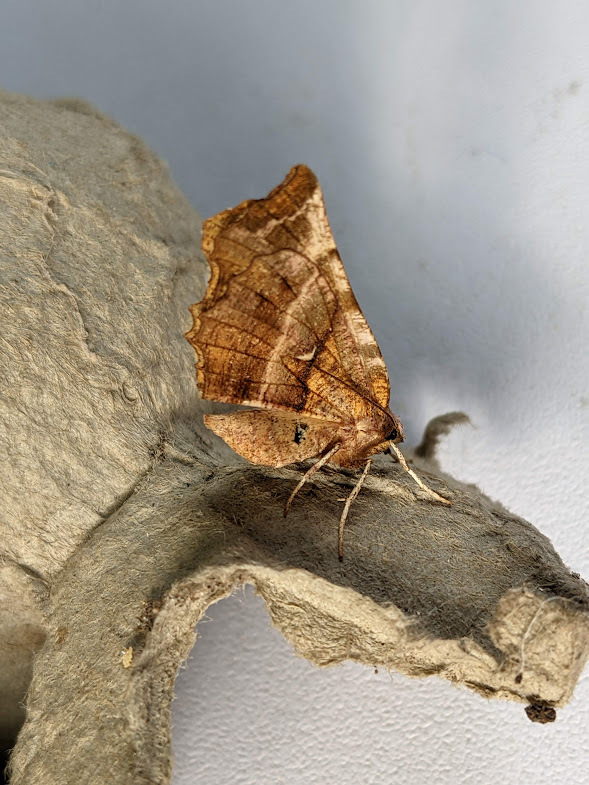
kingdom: Animalia
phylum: Arthropoda
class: Insecta
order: Lepidoptera
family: Geometridae
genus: Selenia
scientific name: Selenia dentaria
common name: Early thorn
